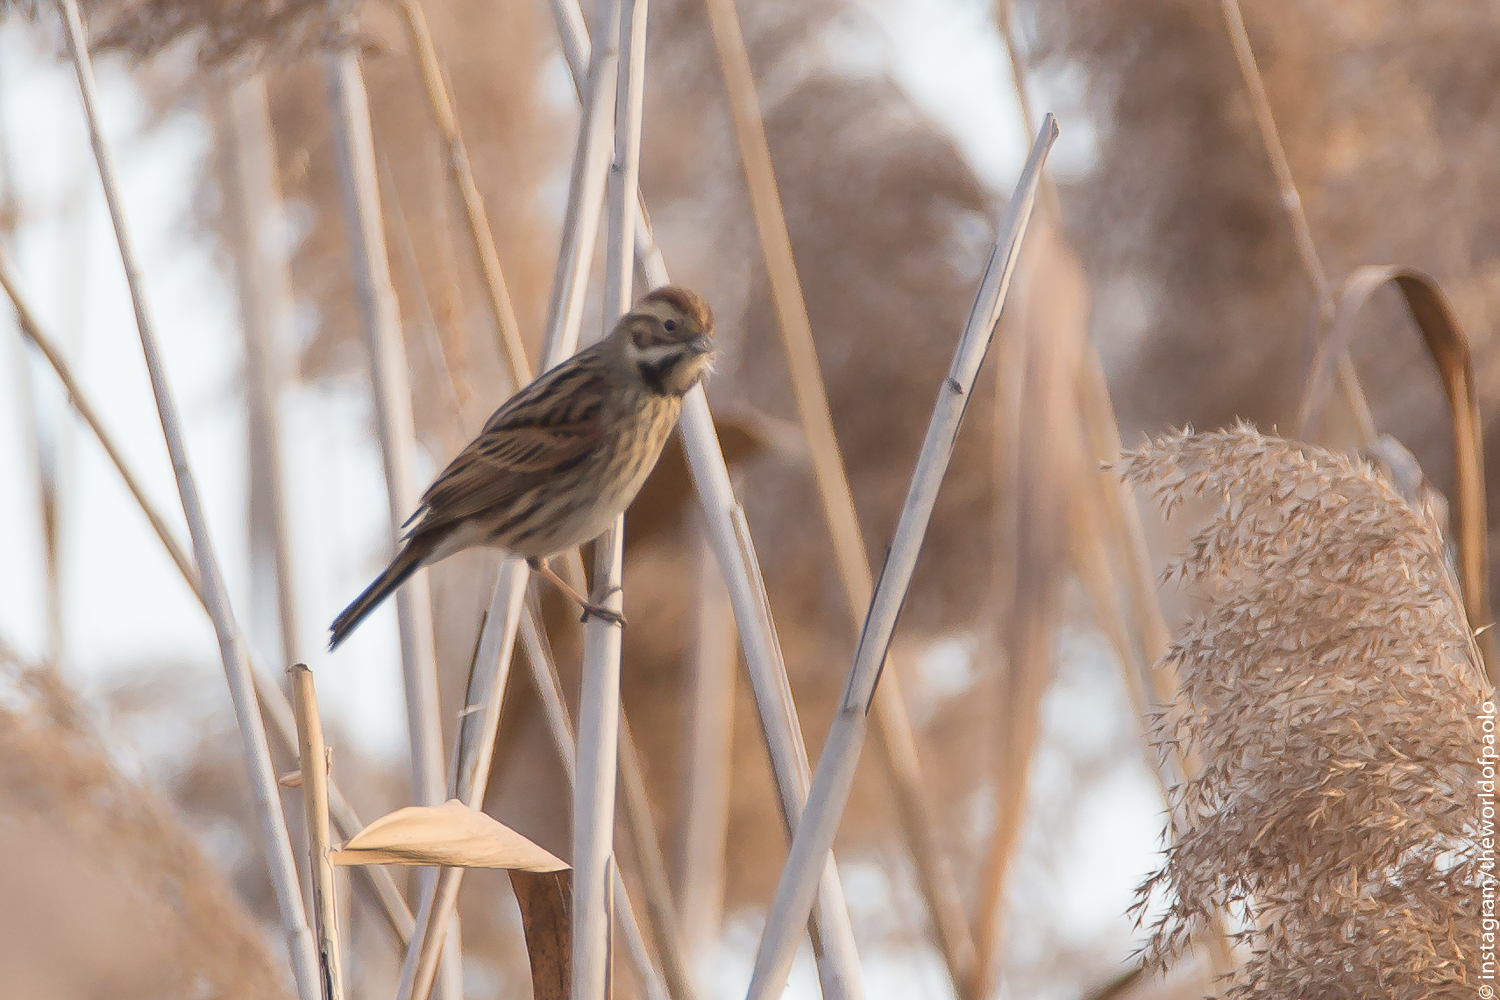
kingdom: Animalia
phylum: Chordata
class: Aves
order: Passeriformes
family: Emberizidae
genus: Emberiza
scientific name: Emberiza schoeniclus
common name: Reed bunting
